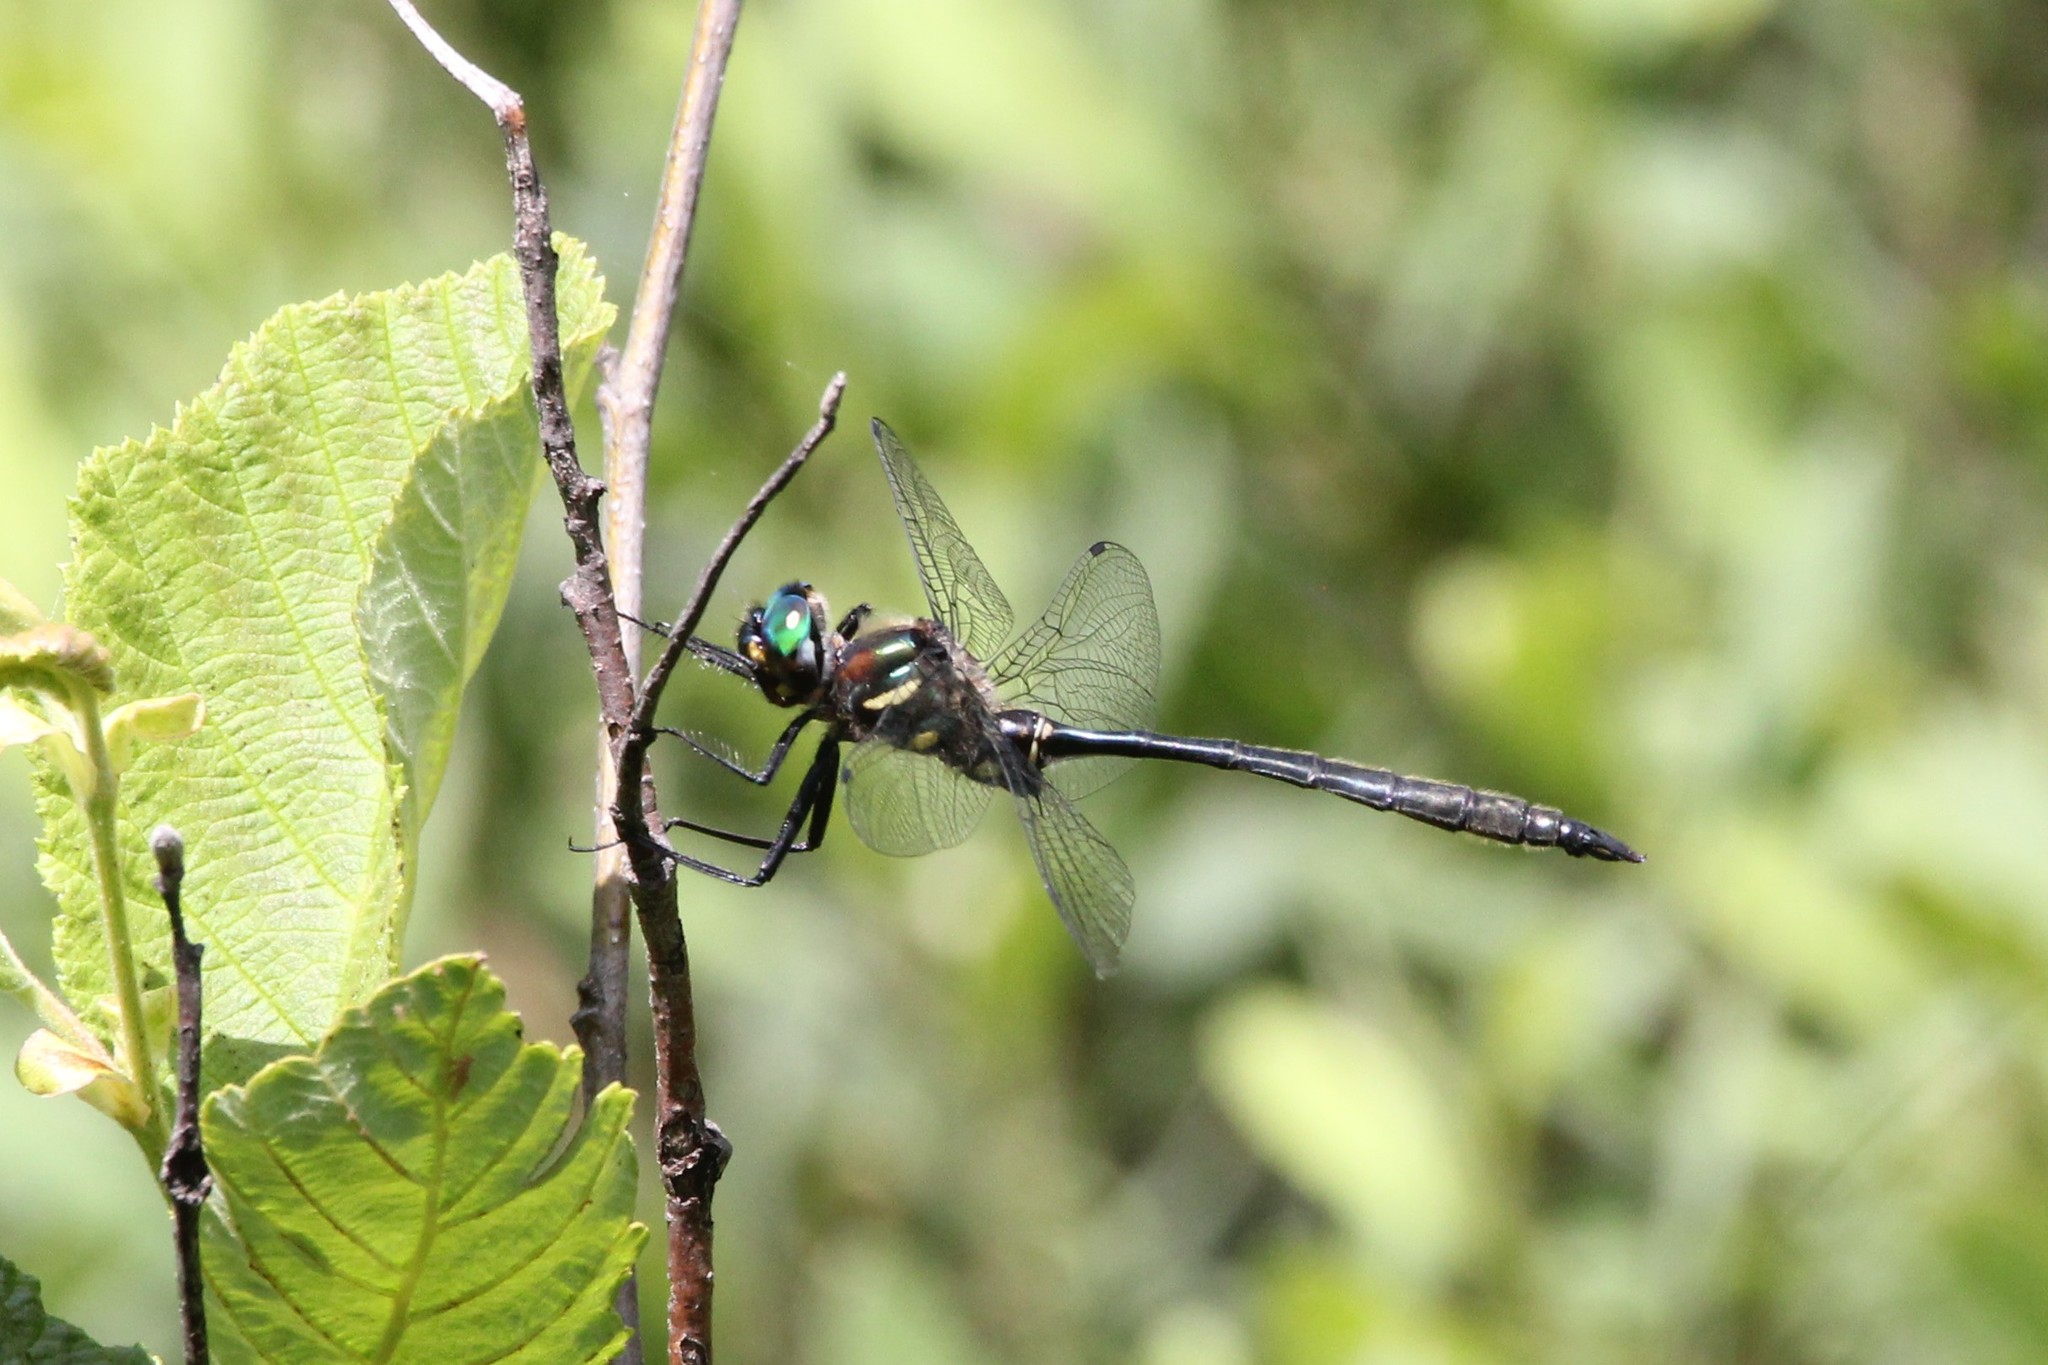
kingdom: Animalia
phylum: Arthropoda
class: Insecta
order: Odonata
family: Corduliidae
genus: Somatochlora
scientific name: Somatochlora elongata
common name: Ski-tipped emerald
